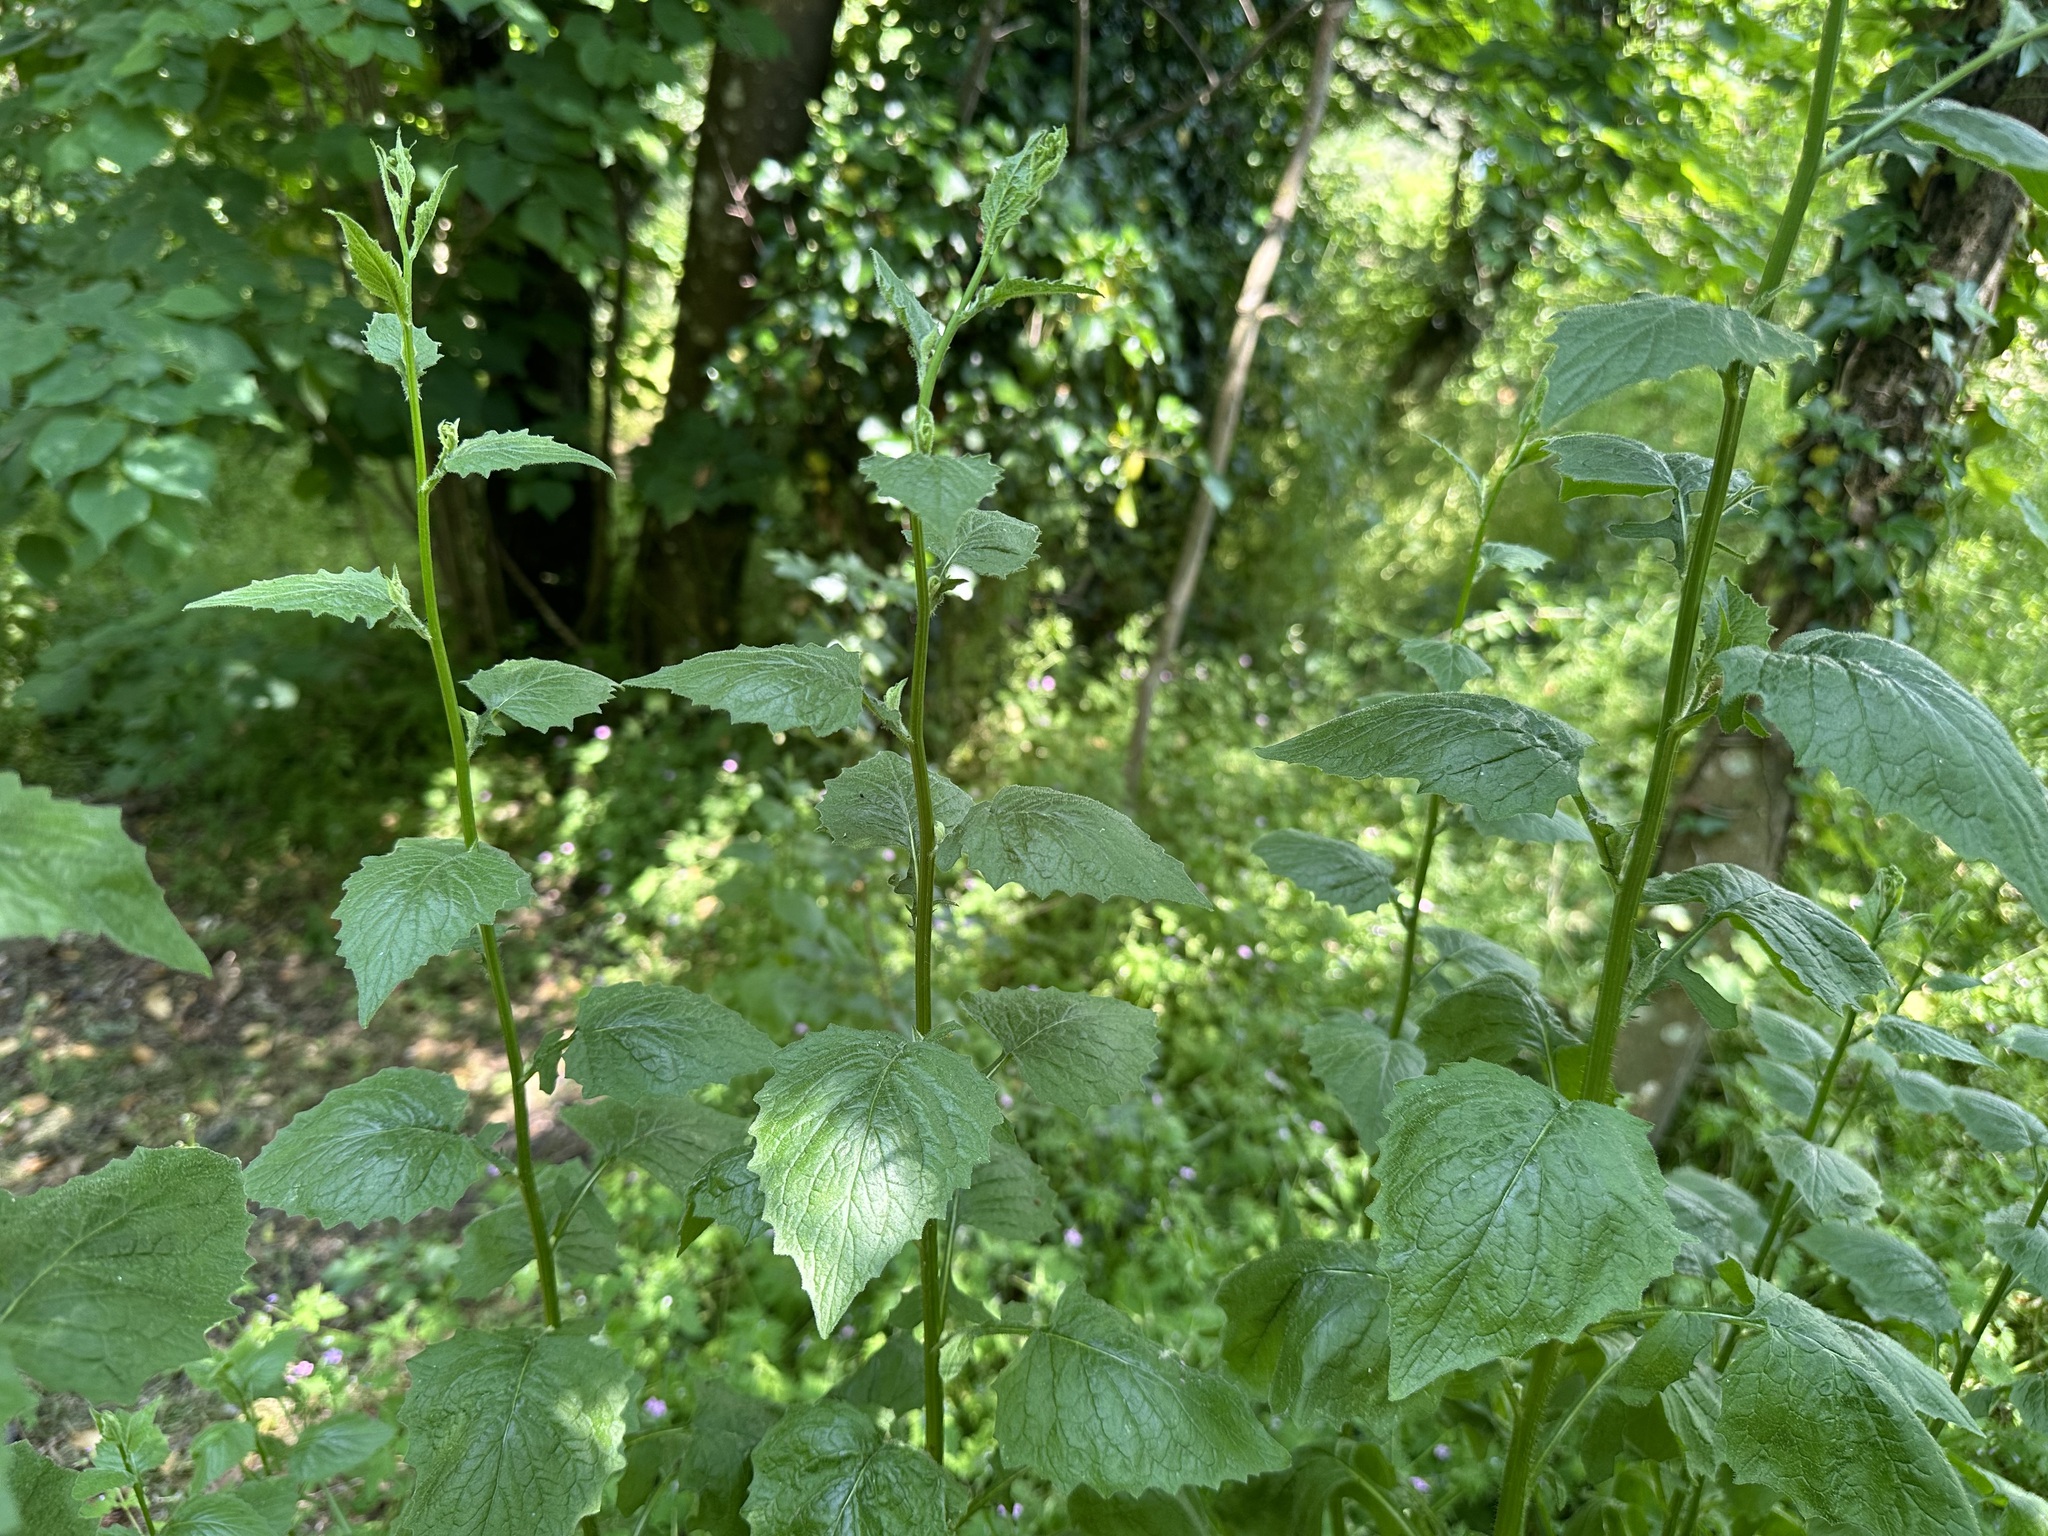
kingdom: Plantae
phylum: Tracheophyta
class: Magnoliopsida
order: Asterales
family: Asteraceae
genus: Lapsana
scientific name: Lapsana communis
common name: Nipplewort
